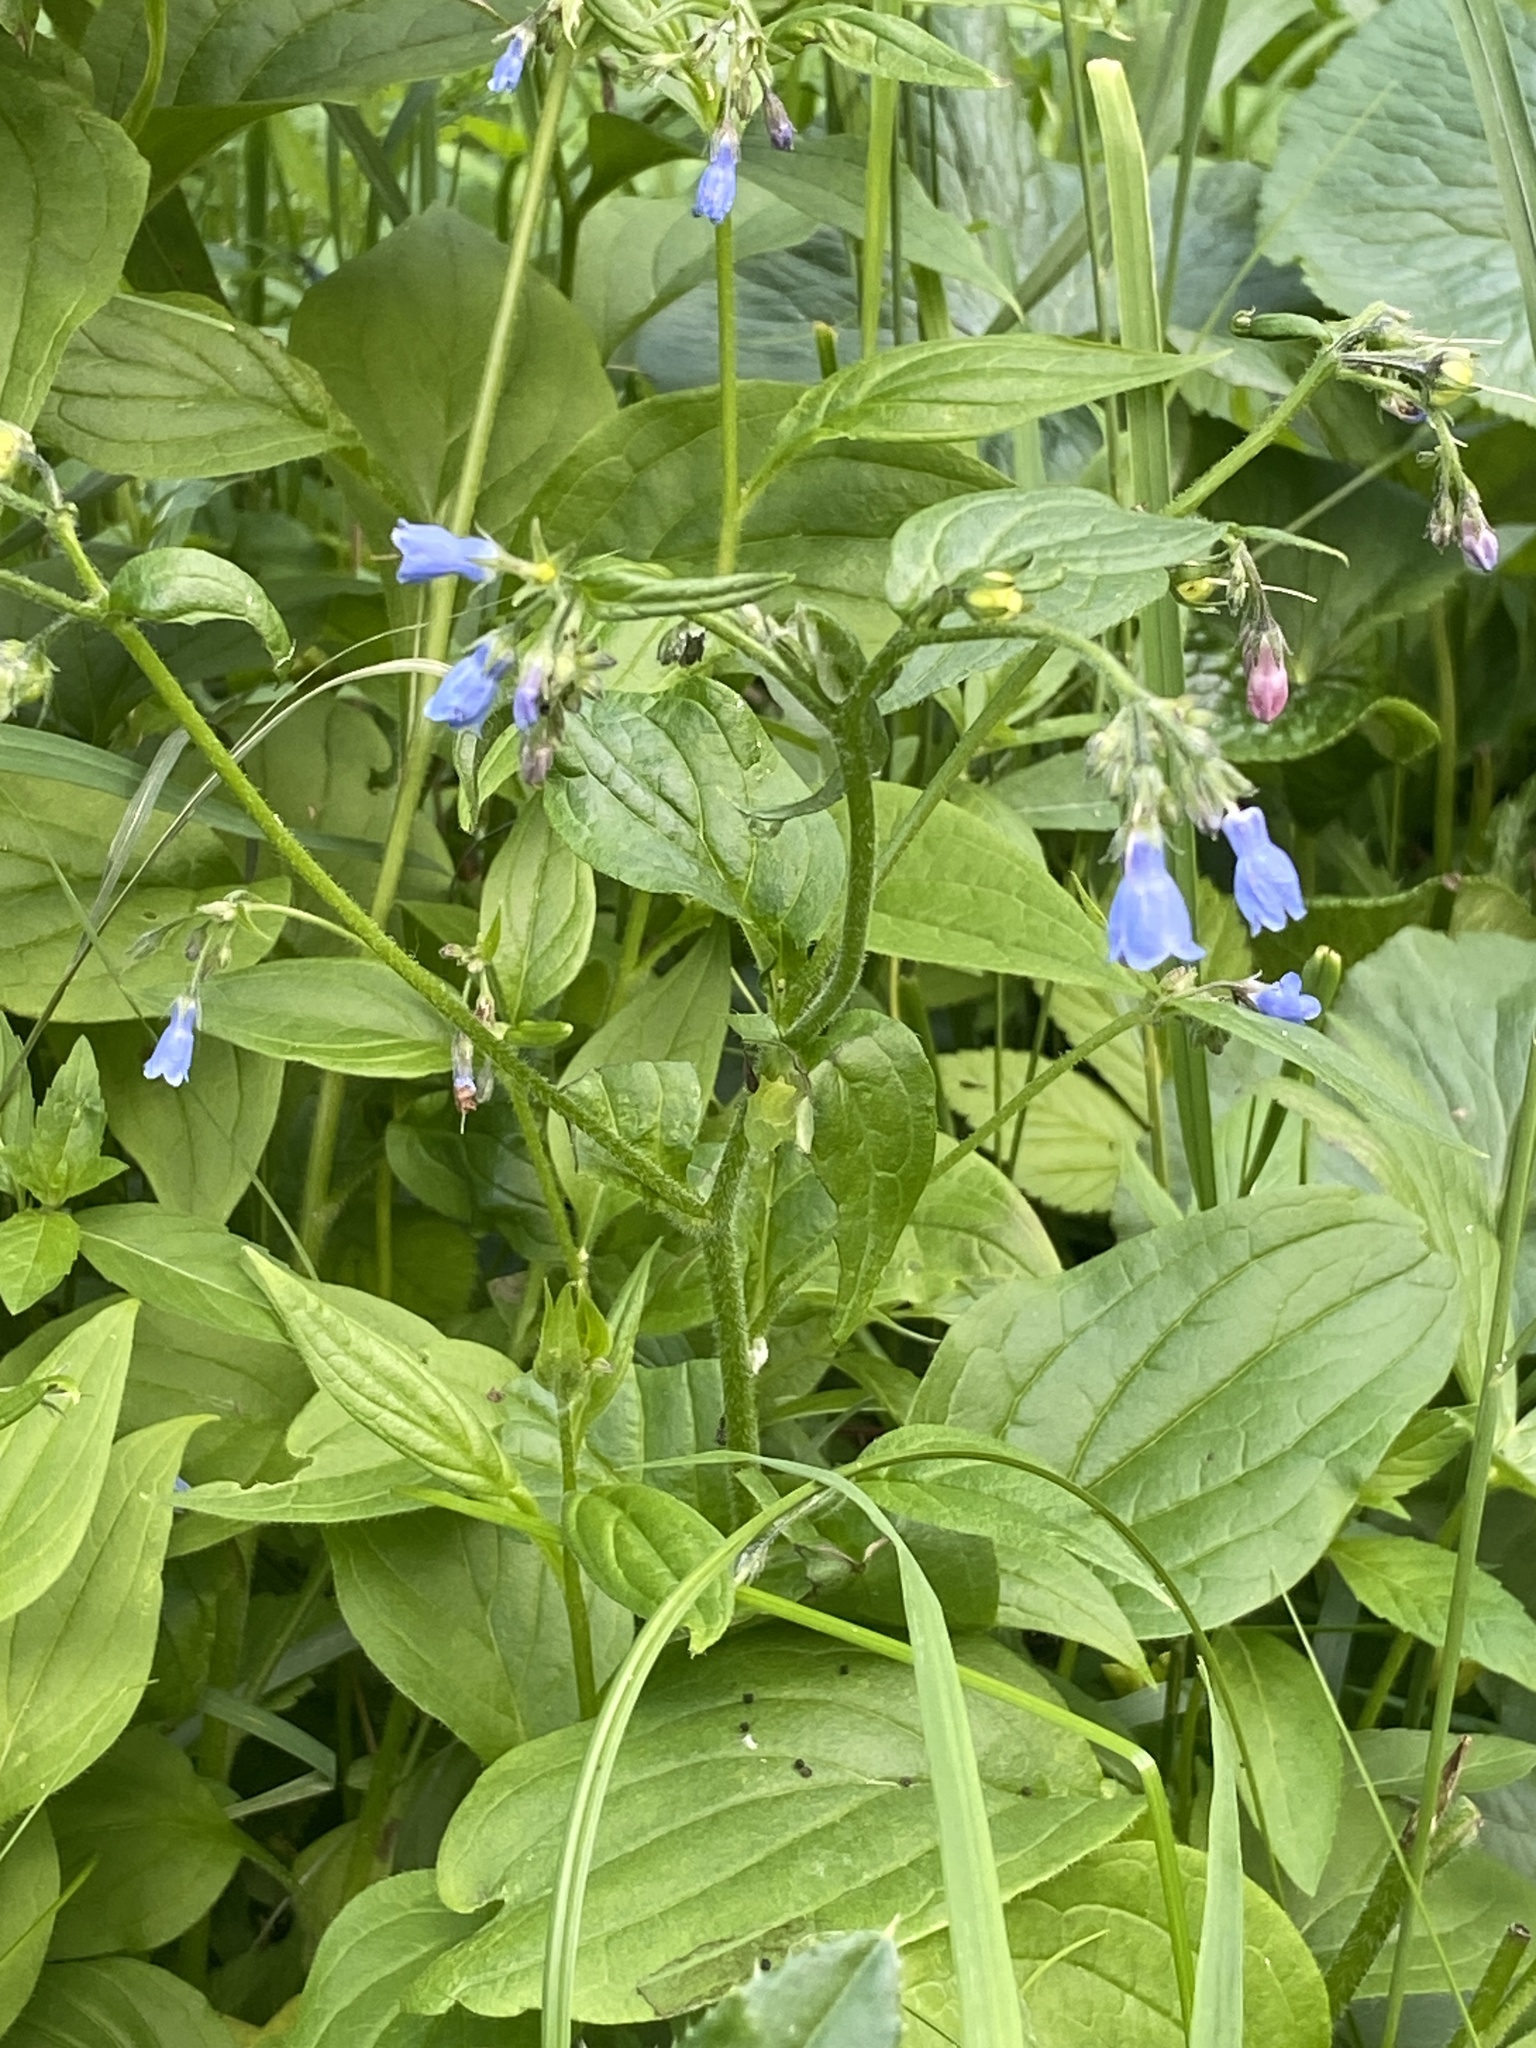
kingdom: Plantae
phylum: Tracheophyta
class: Magnoliopsida
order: Boraginales
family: Boraginaceae
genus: Mertensia
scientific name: Mertensia paniculata
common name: Panicled bluebells
